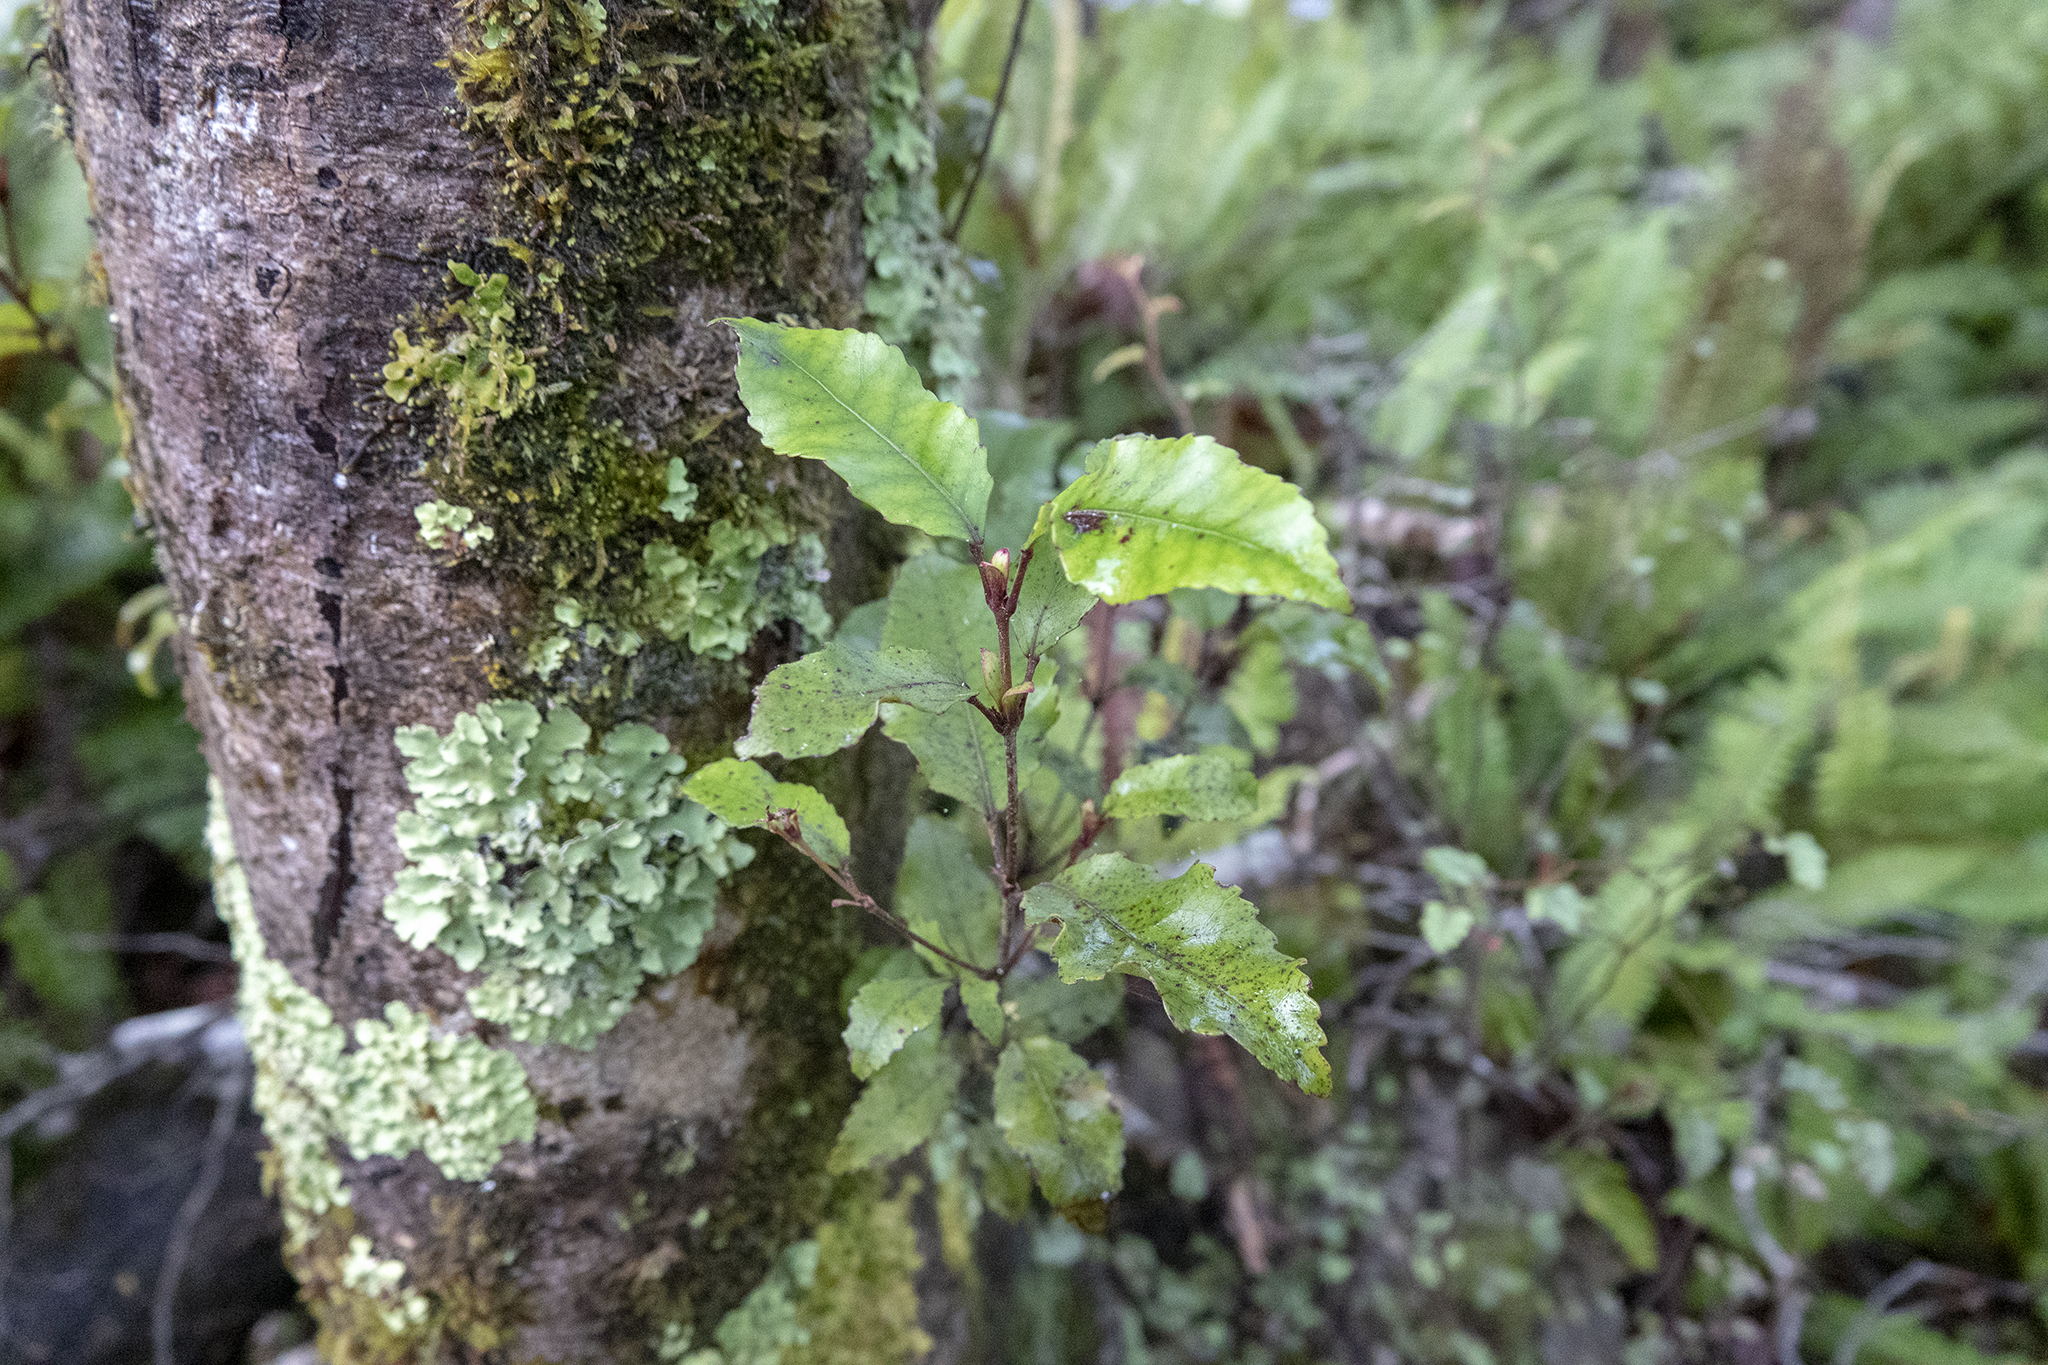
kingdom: Plantae
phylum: Tracheophyta
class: Magnoliopsida
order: Oxalidales
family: Cunoniaceae
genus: Pterophylla
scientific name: Pterophylla racemosa
